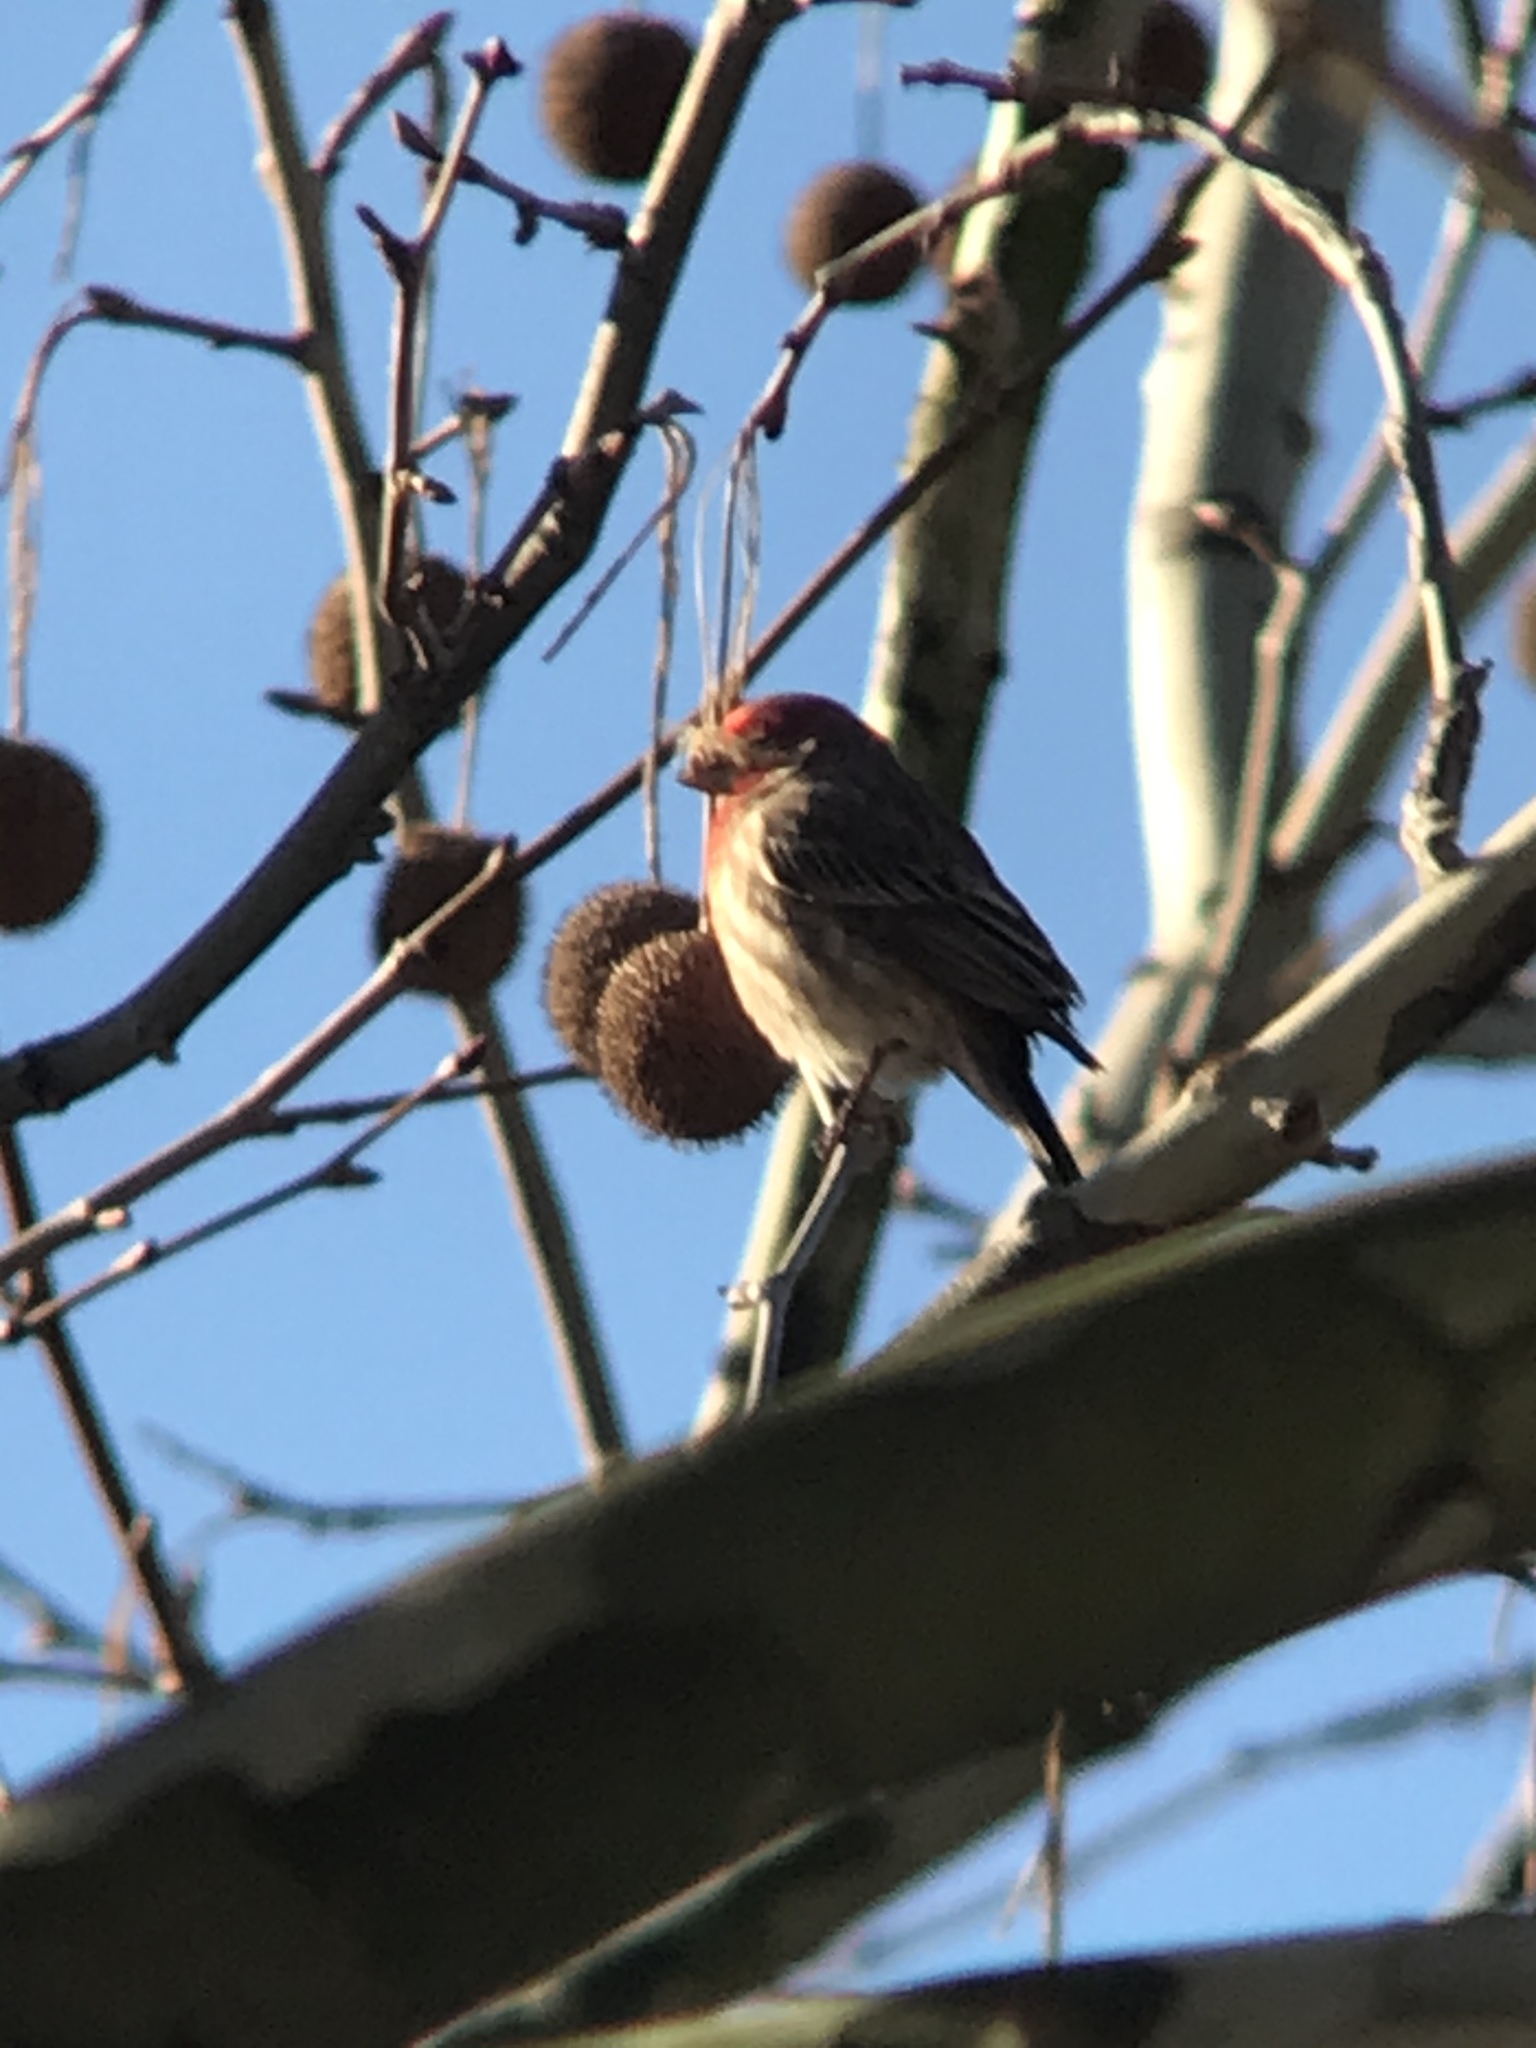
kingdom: Animalia
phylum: Chordata
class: Aves
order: Passeriformes
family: Fringillidae
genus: Haemorhous
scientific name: Haemorhous mexicanus
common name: House finch
